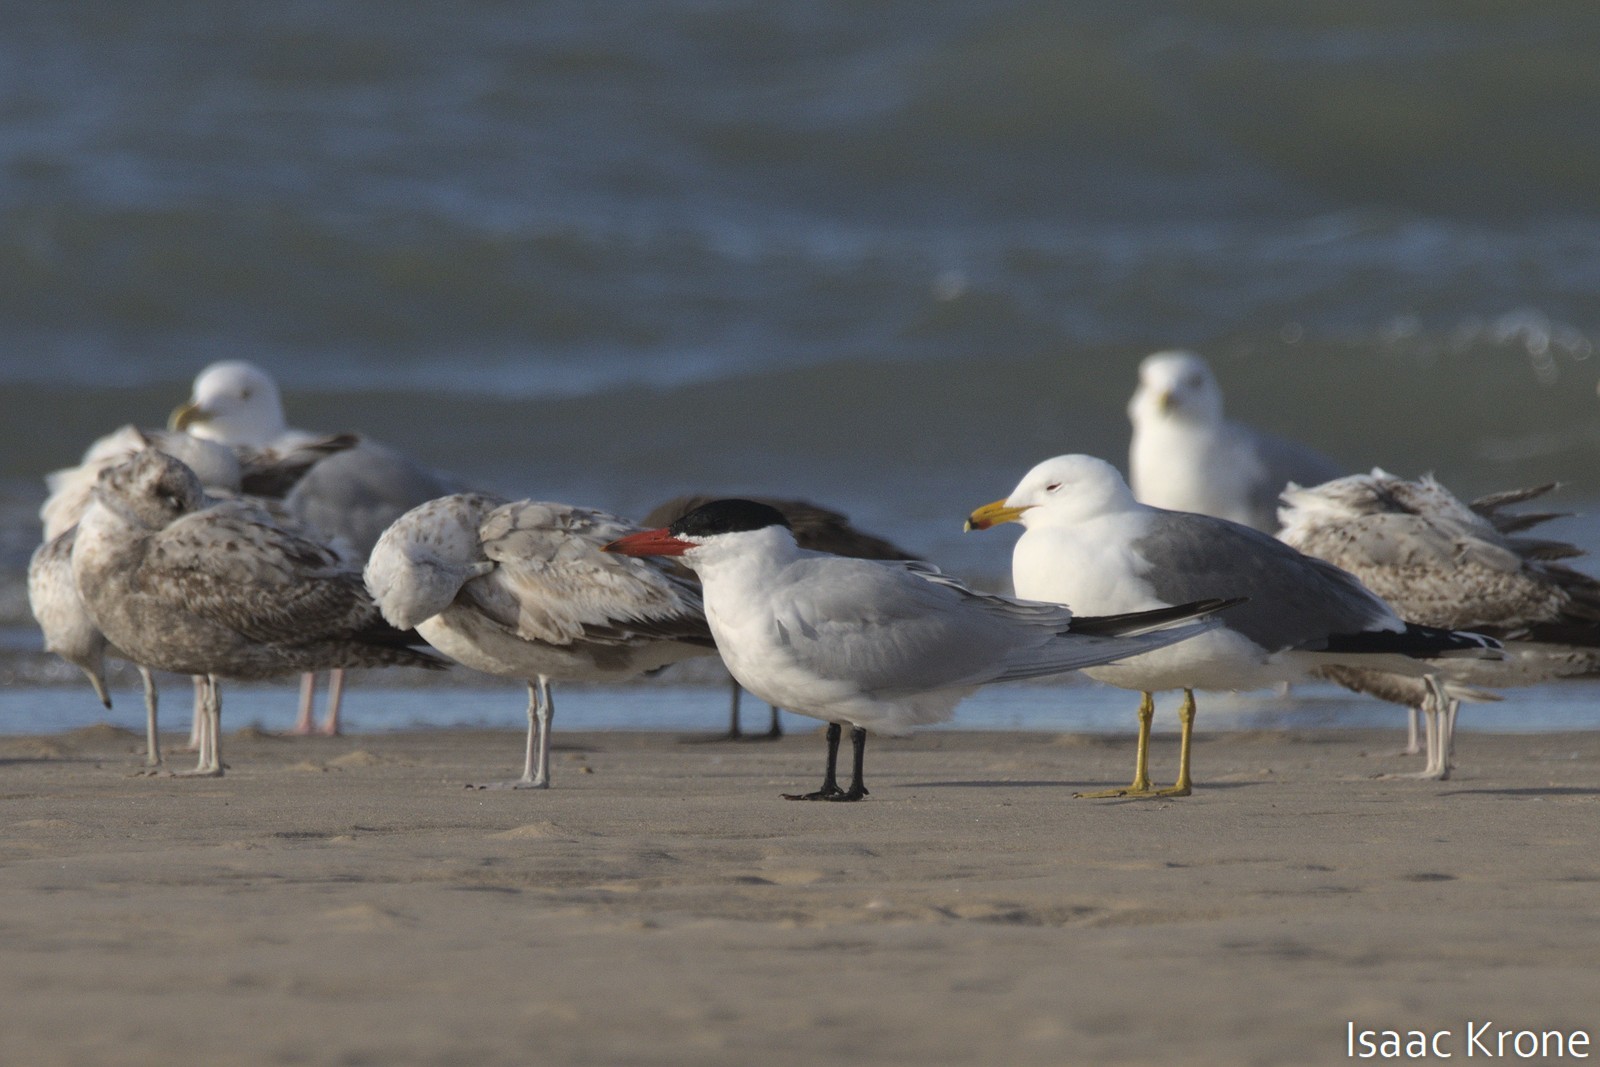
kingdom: Animalia
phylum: Chordata
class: Aves
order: Charadriiformes
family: Laridae
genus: Hydroprogne
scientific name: Hydroprogne caspia
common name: Caspian tern
